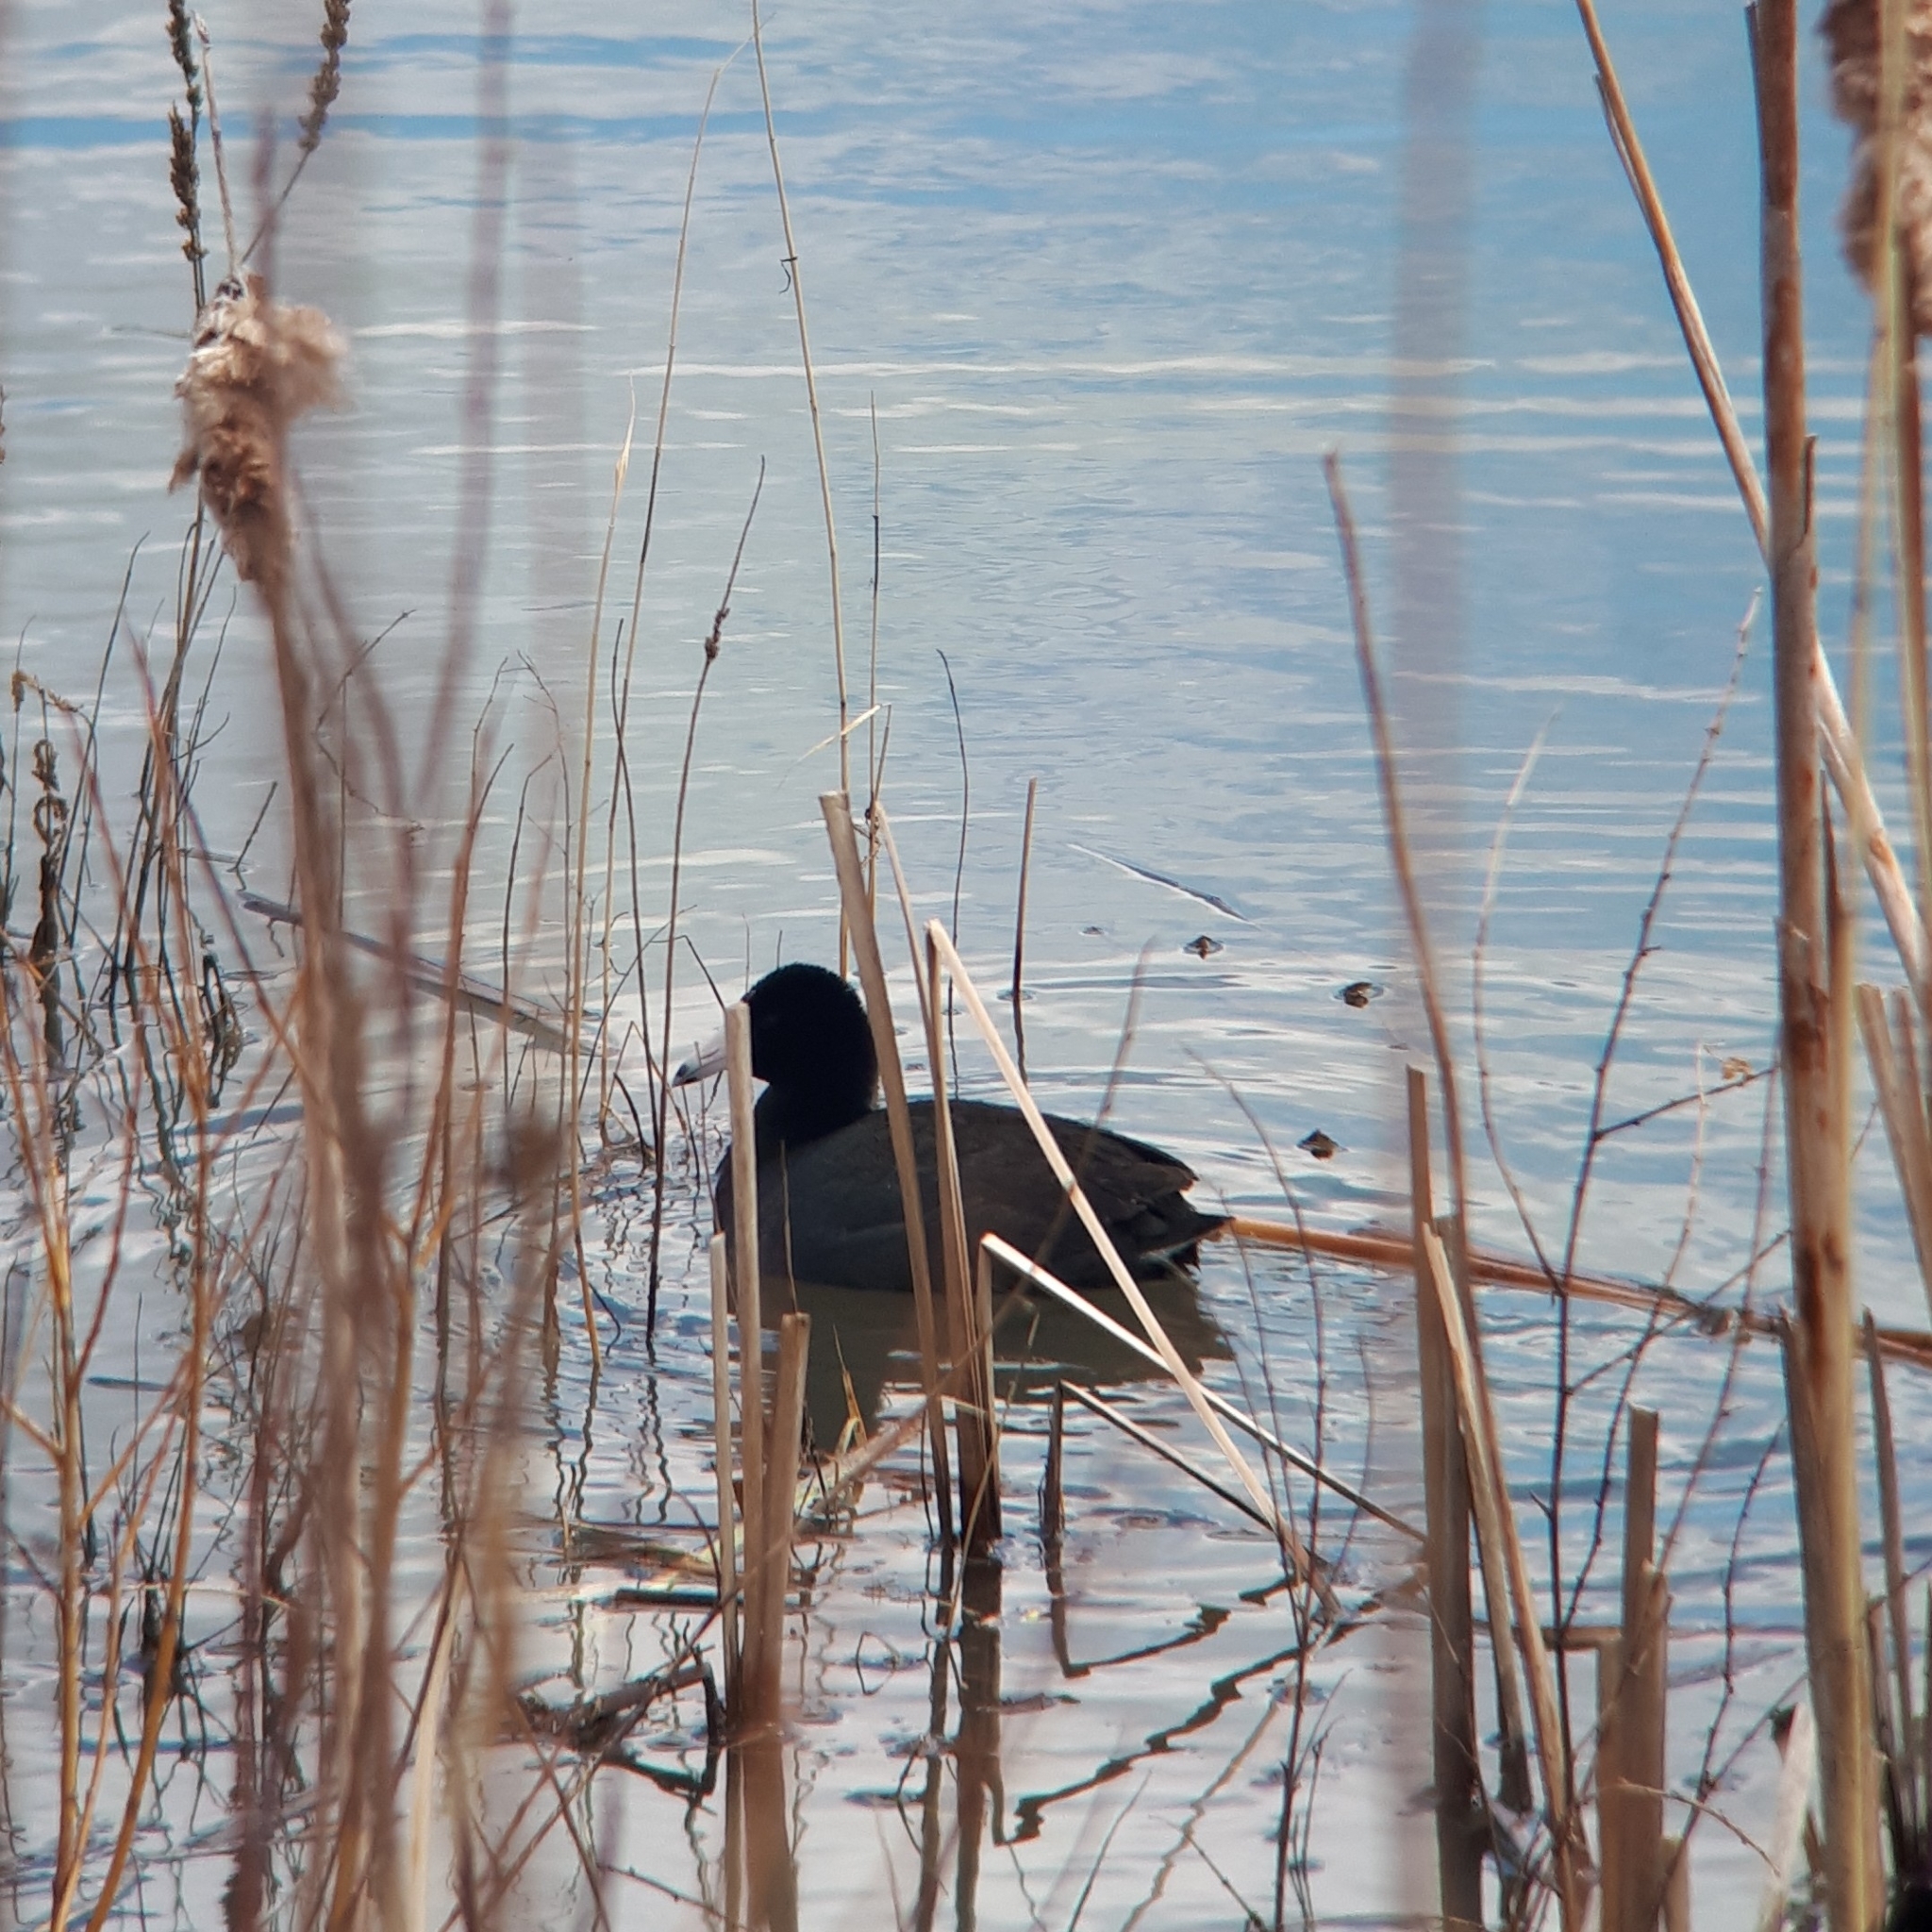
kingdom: Animalia
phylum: Chordata
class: Aves
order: Gruiformes
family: Rallidae
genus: Fulica
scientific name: Fulica americana
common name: American coot
